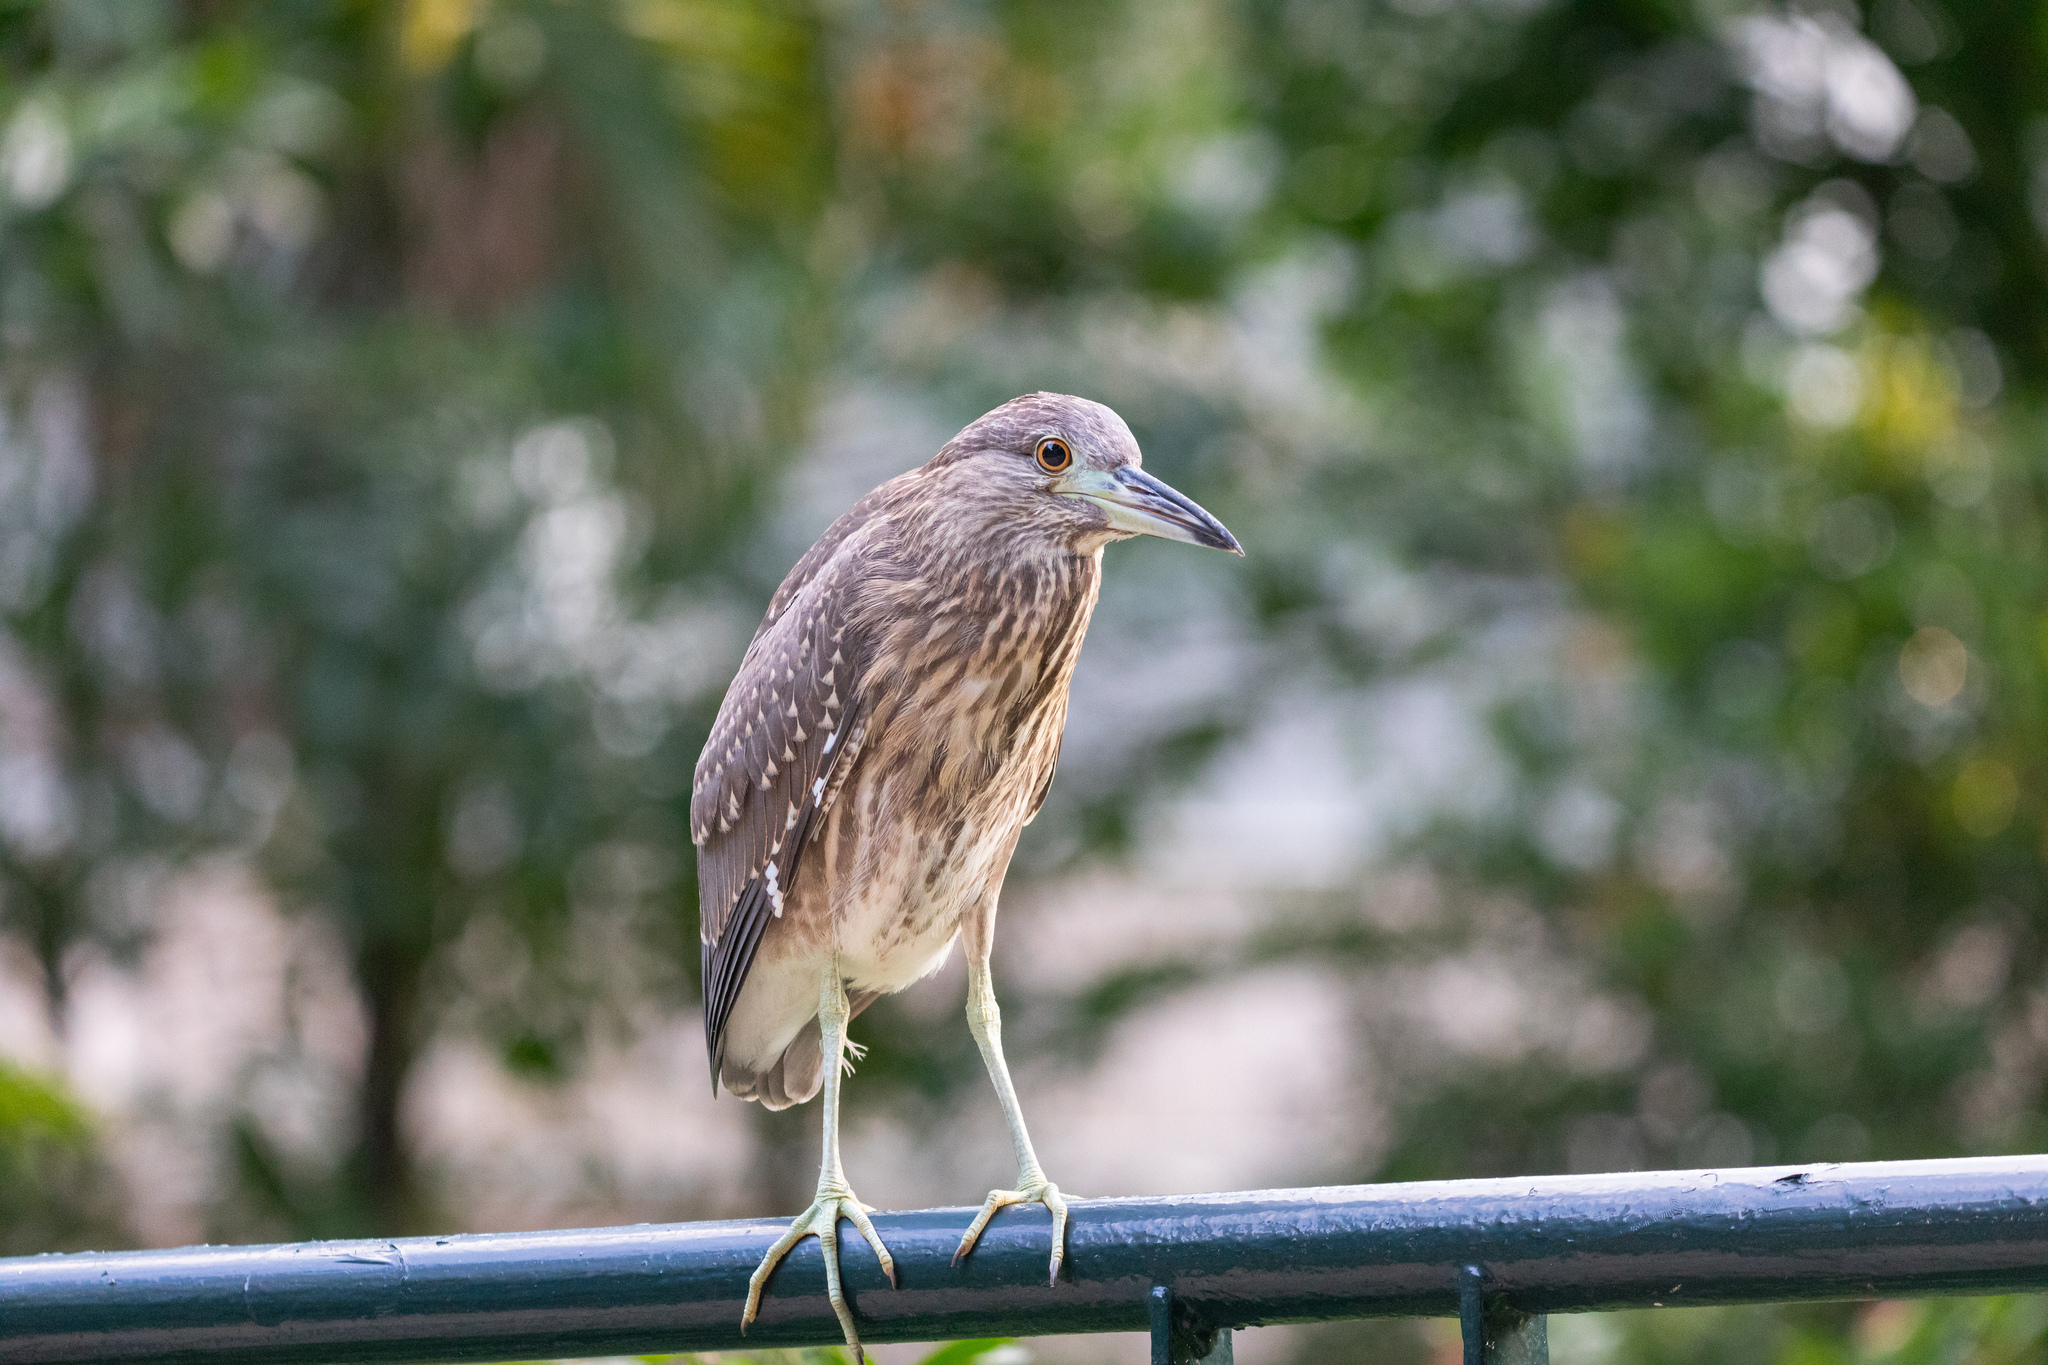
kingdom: Animalia
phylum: Chordata
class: Aves
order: Pelecaniformes
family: Ardeidae
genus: Nycticorax
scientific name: Nycticorax nycticorax
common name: Black-crowned night heron
